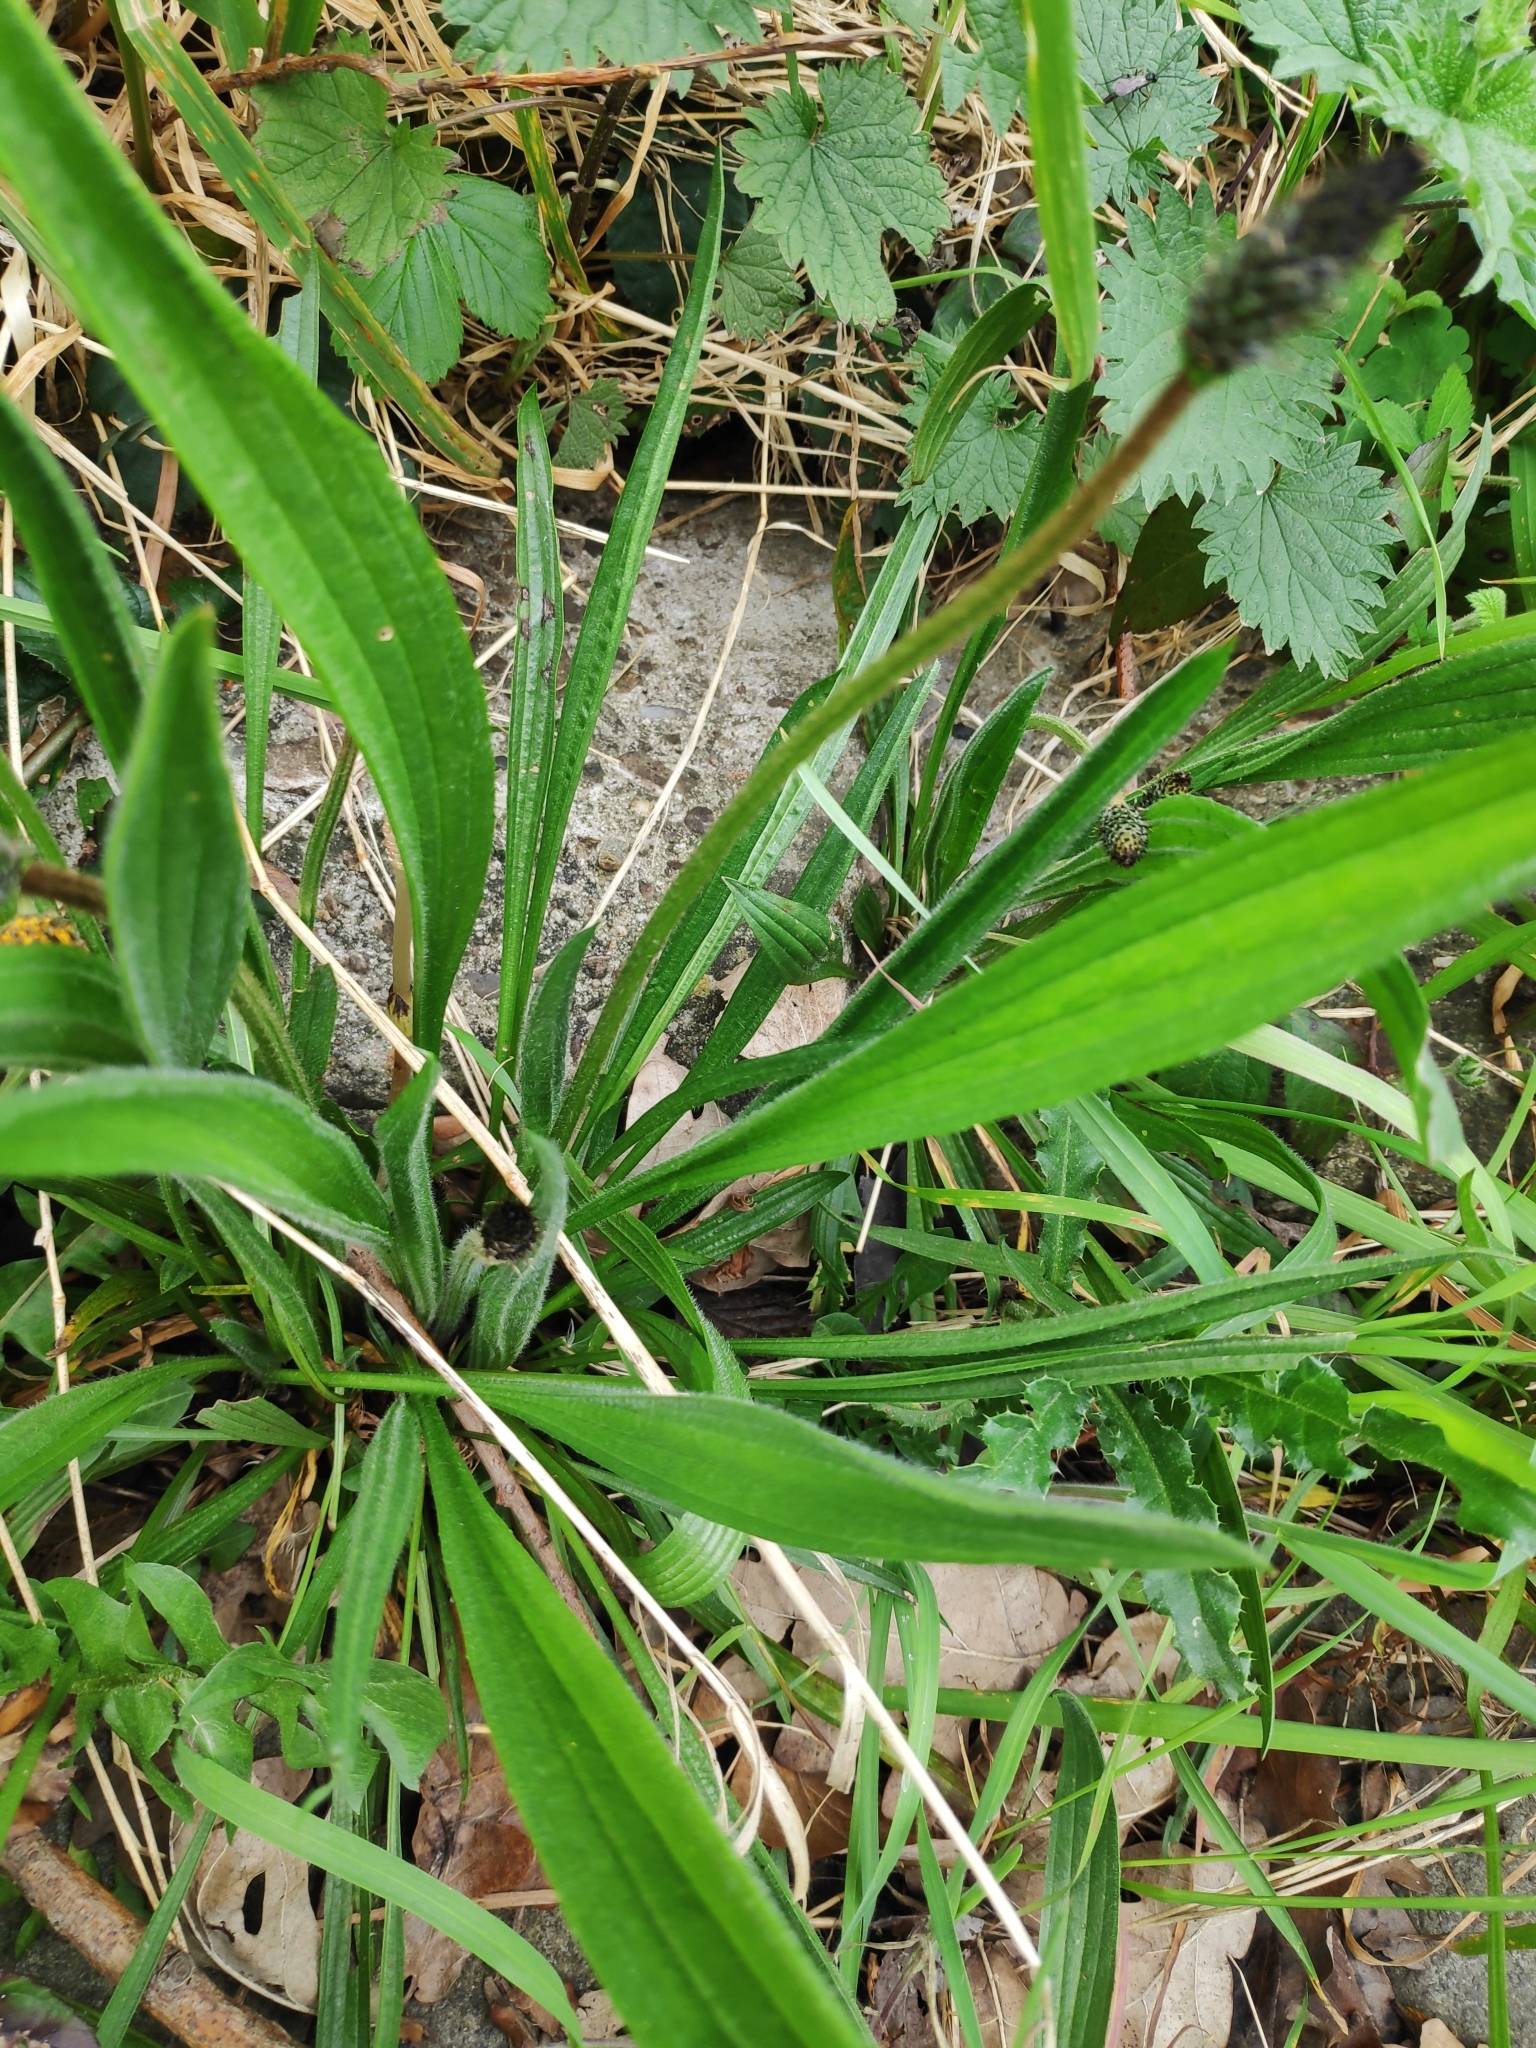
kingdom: Plantae
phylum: Tracheophyta
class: Magnoliopsida
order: Lamiales
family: Plantaginaceae
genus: Plantago
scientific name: Plantago lanceolata
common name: Ribwort plantain
